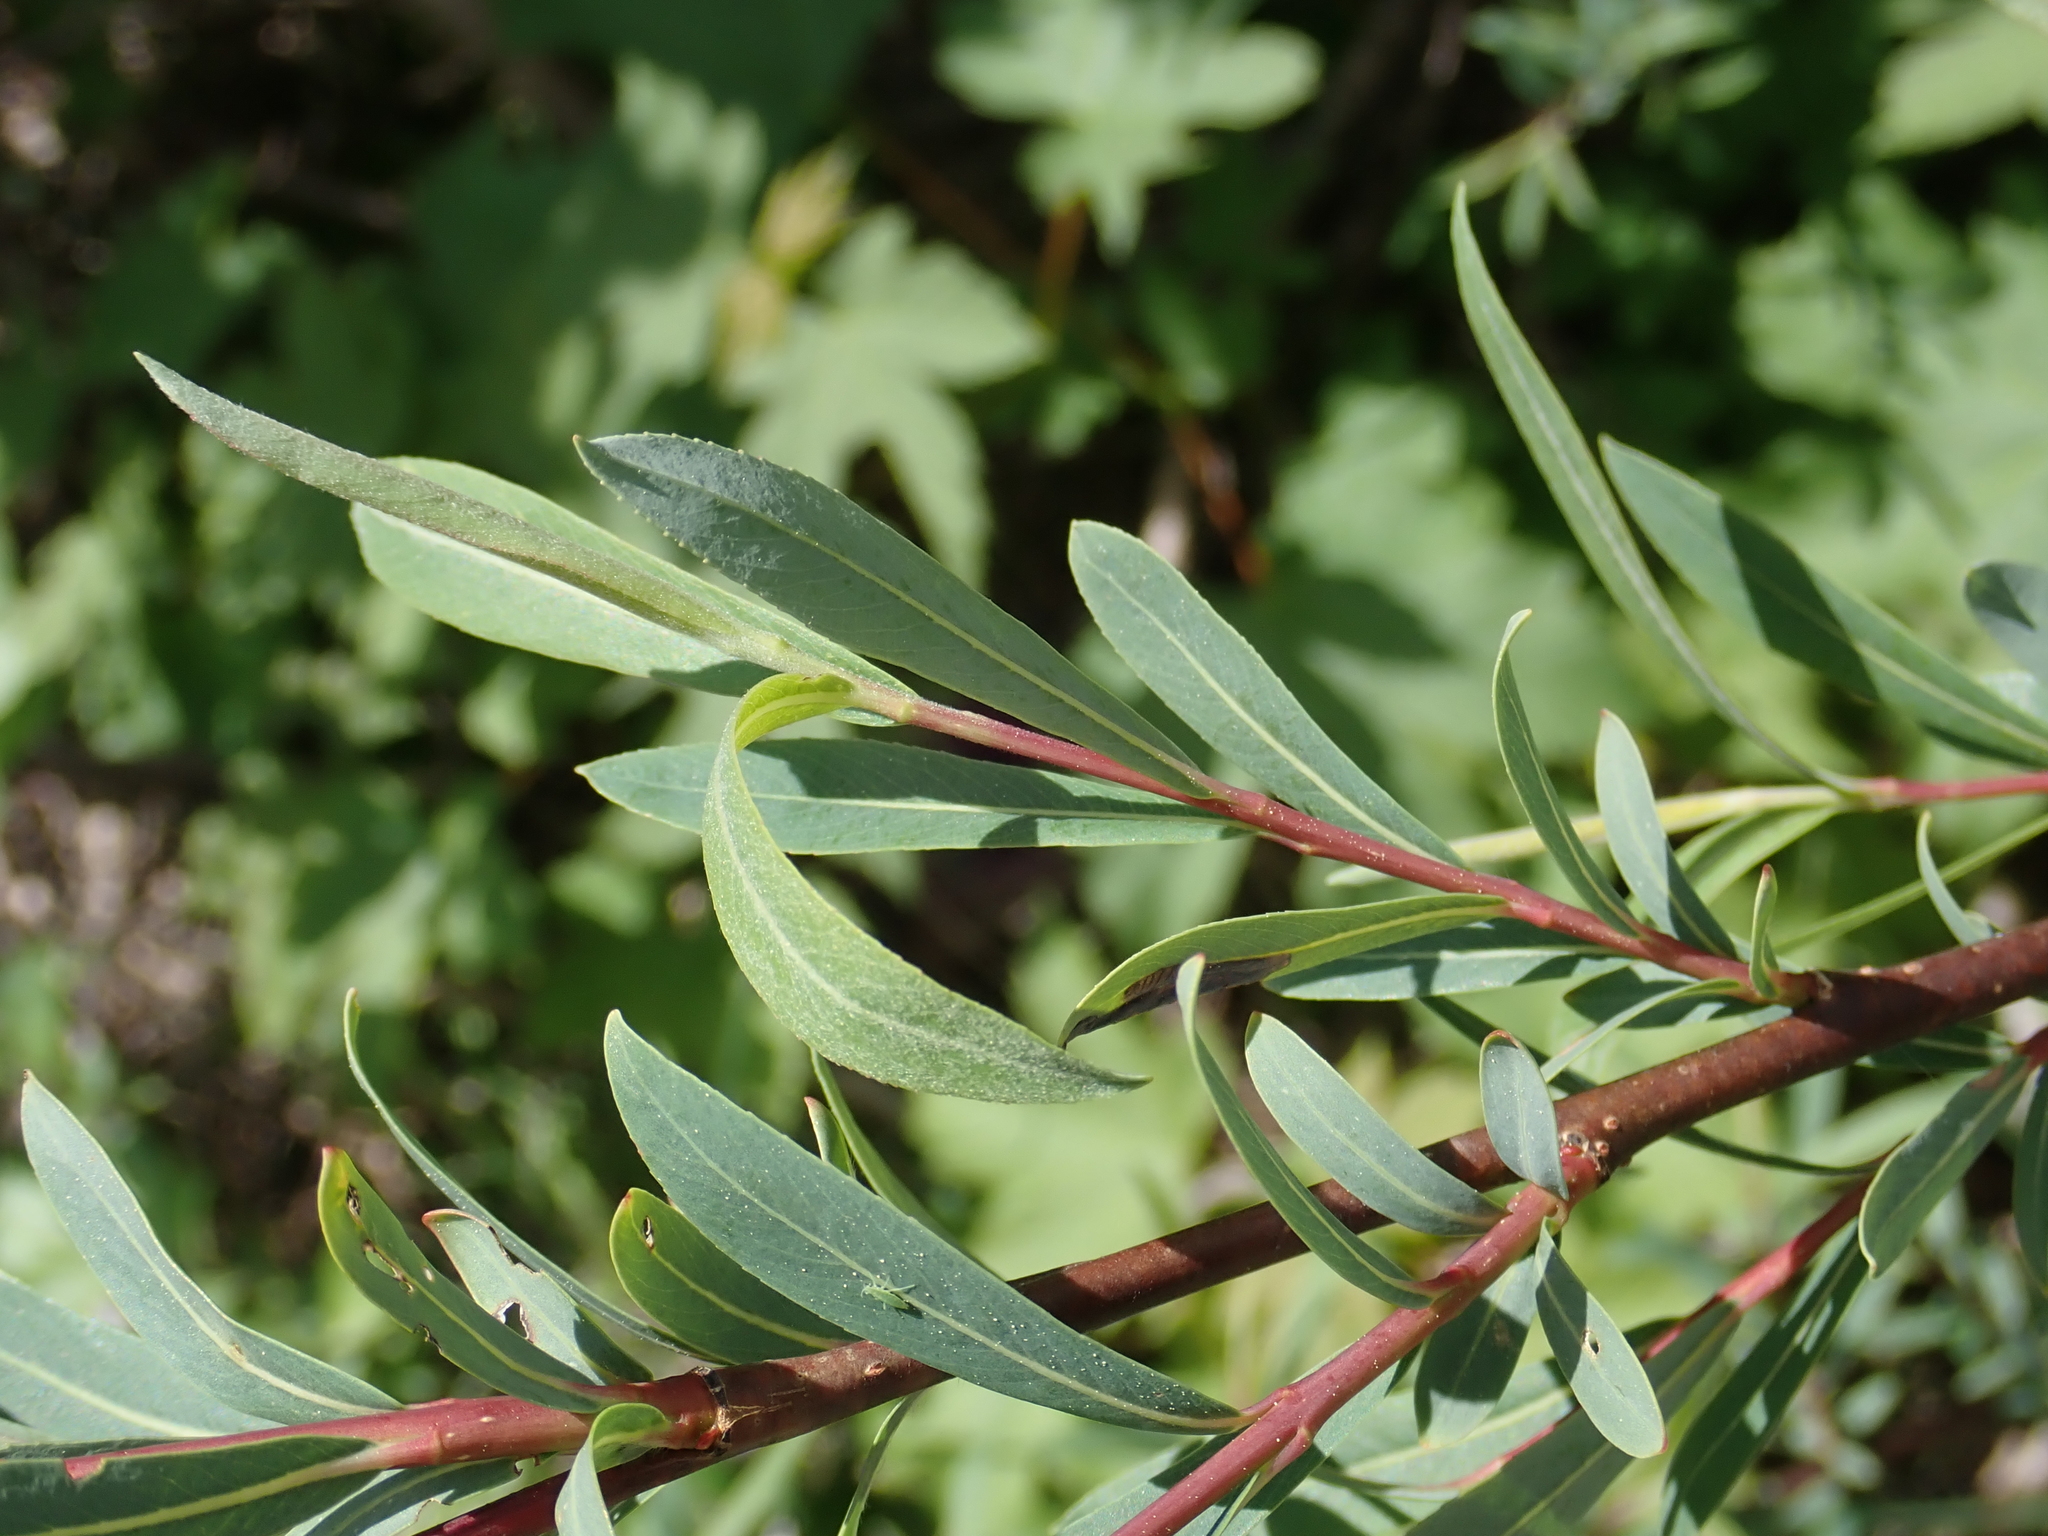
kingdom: Plantae
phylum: Tracheophyta
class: Magnoliopsida
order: Malpighiales
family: Salicaceae
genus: Salix
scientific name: Salix purpurea
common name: Purple willow
